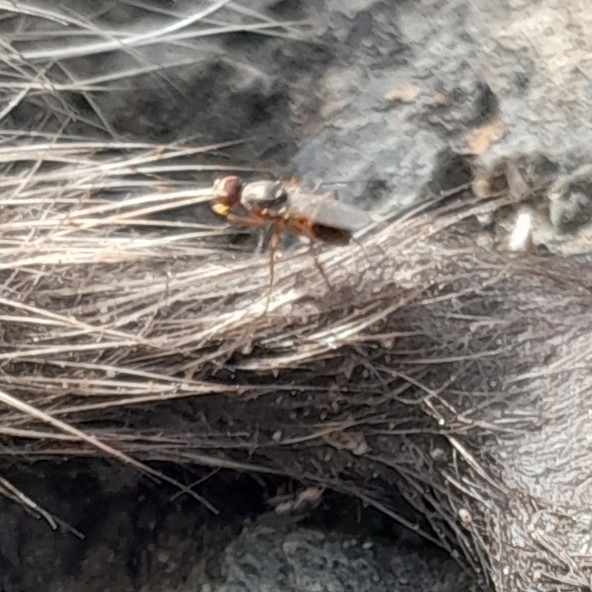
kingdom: Animalia
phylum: Arthropoda
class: Insecta
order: Diptera
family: Sepsidae
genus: Lasionemopoda
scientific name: Lasionemopoda hirsuta
